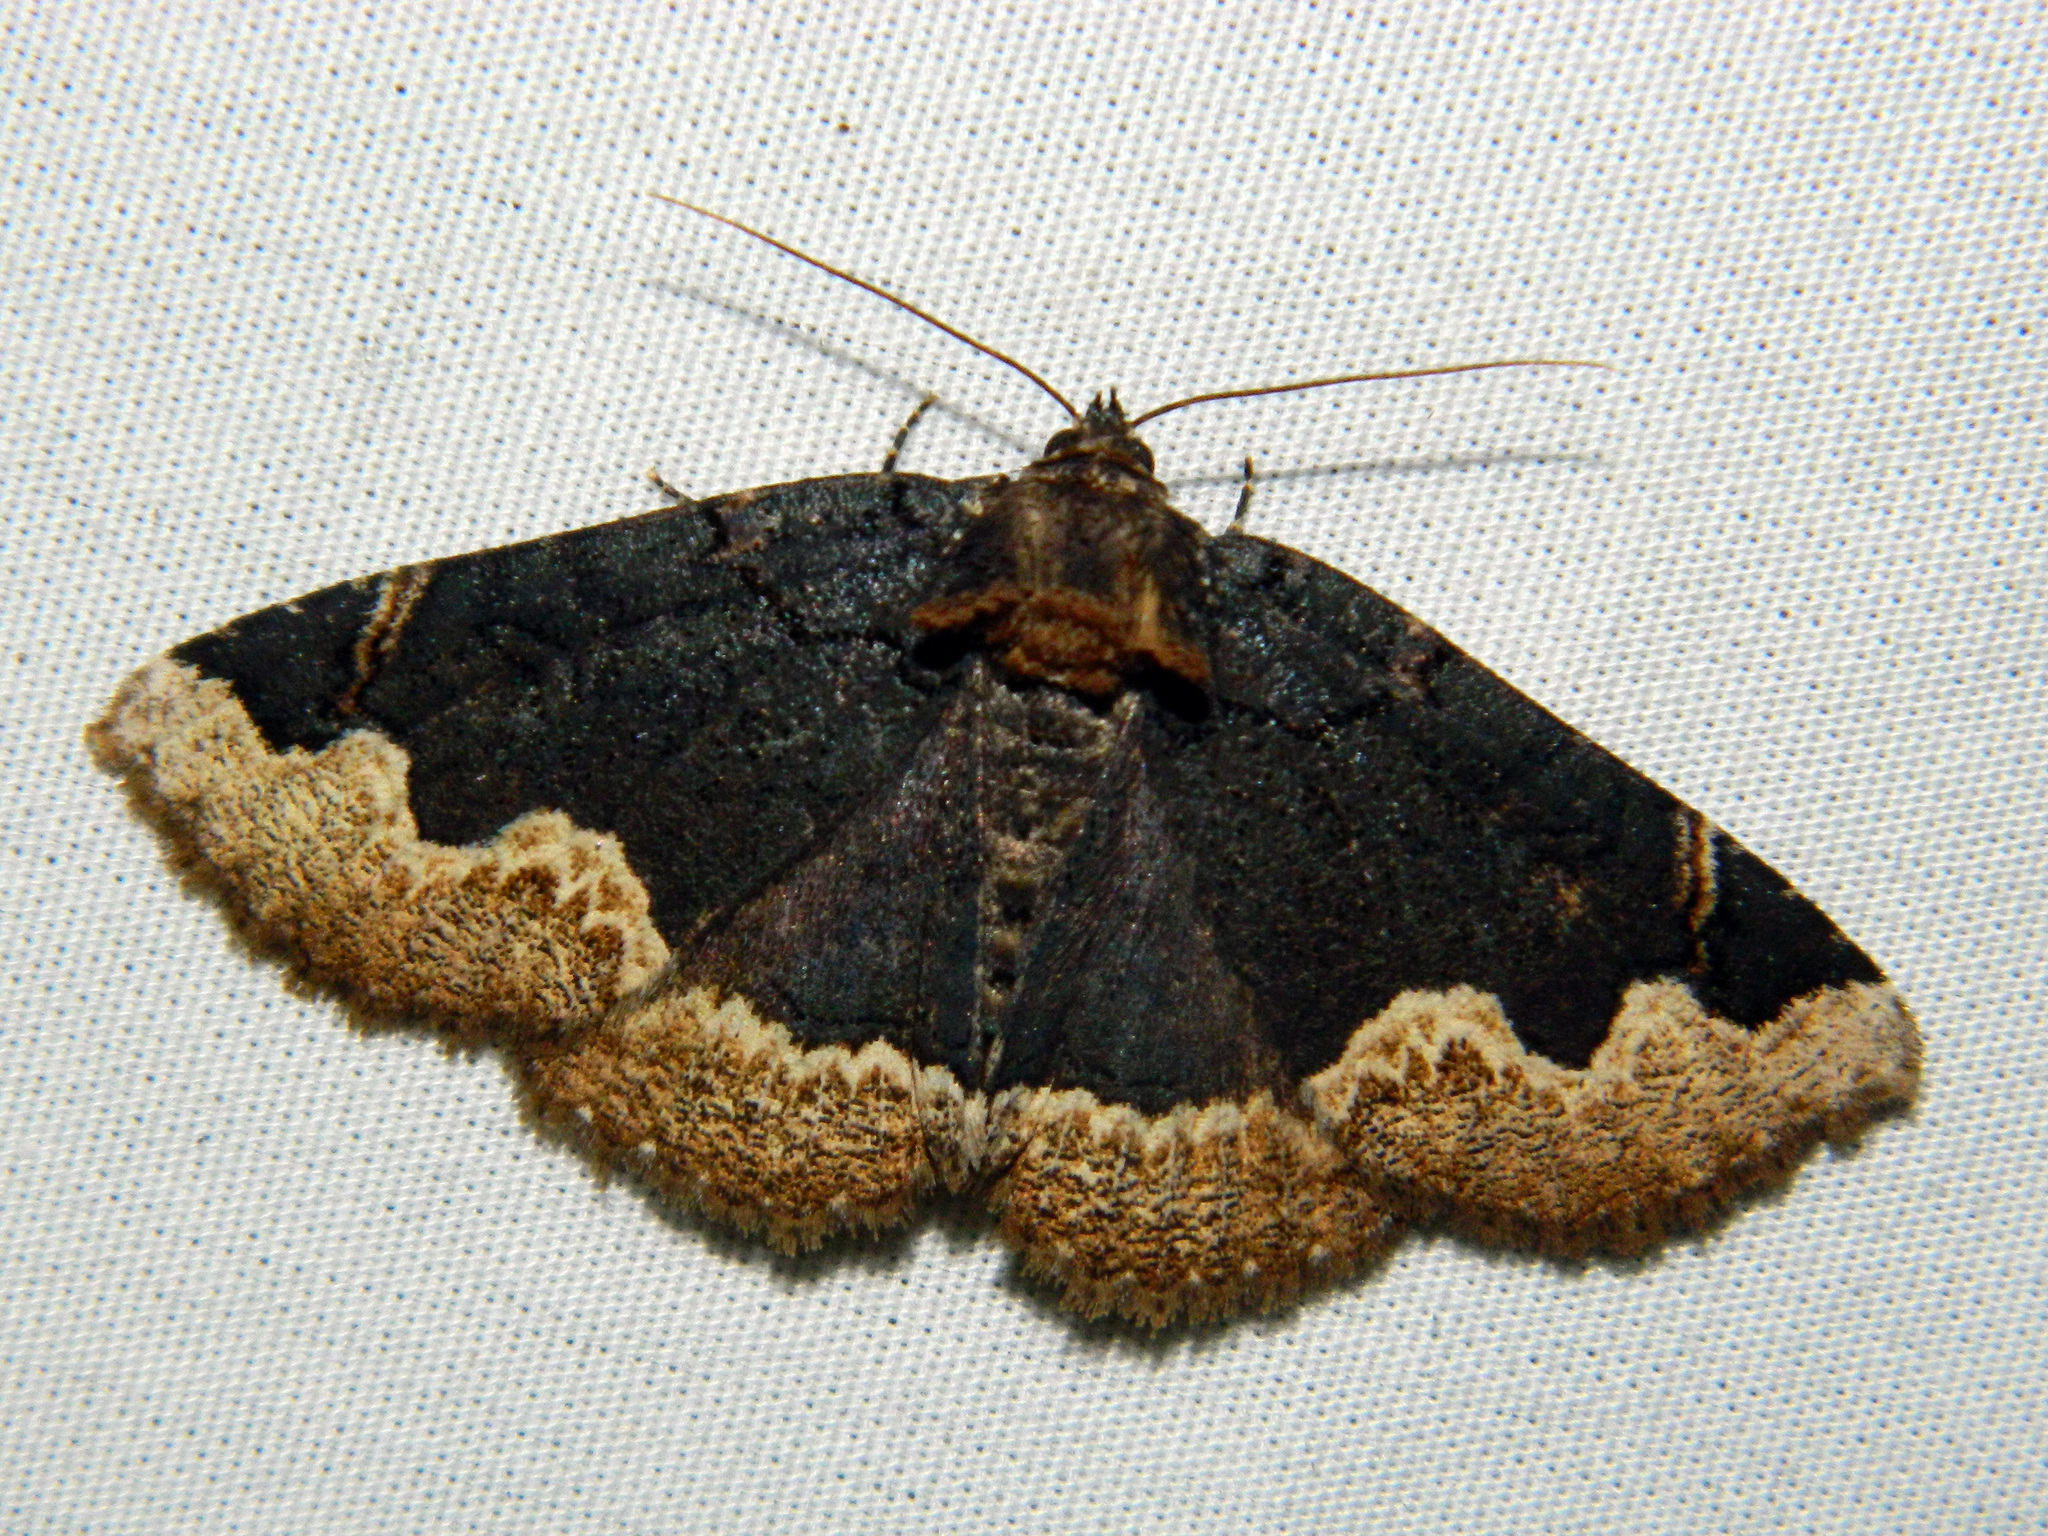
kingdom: Animalia
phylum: Arthropoda
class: Insecta
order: Lepidoptera
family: Erebidae
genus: Zale
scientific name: Zale horrida
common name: Horrid zale moth
